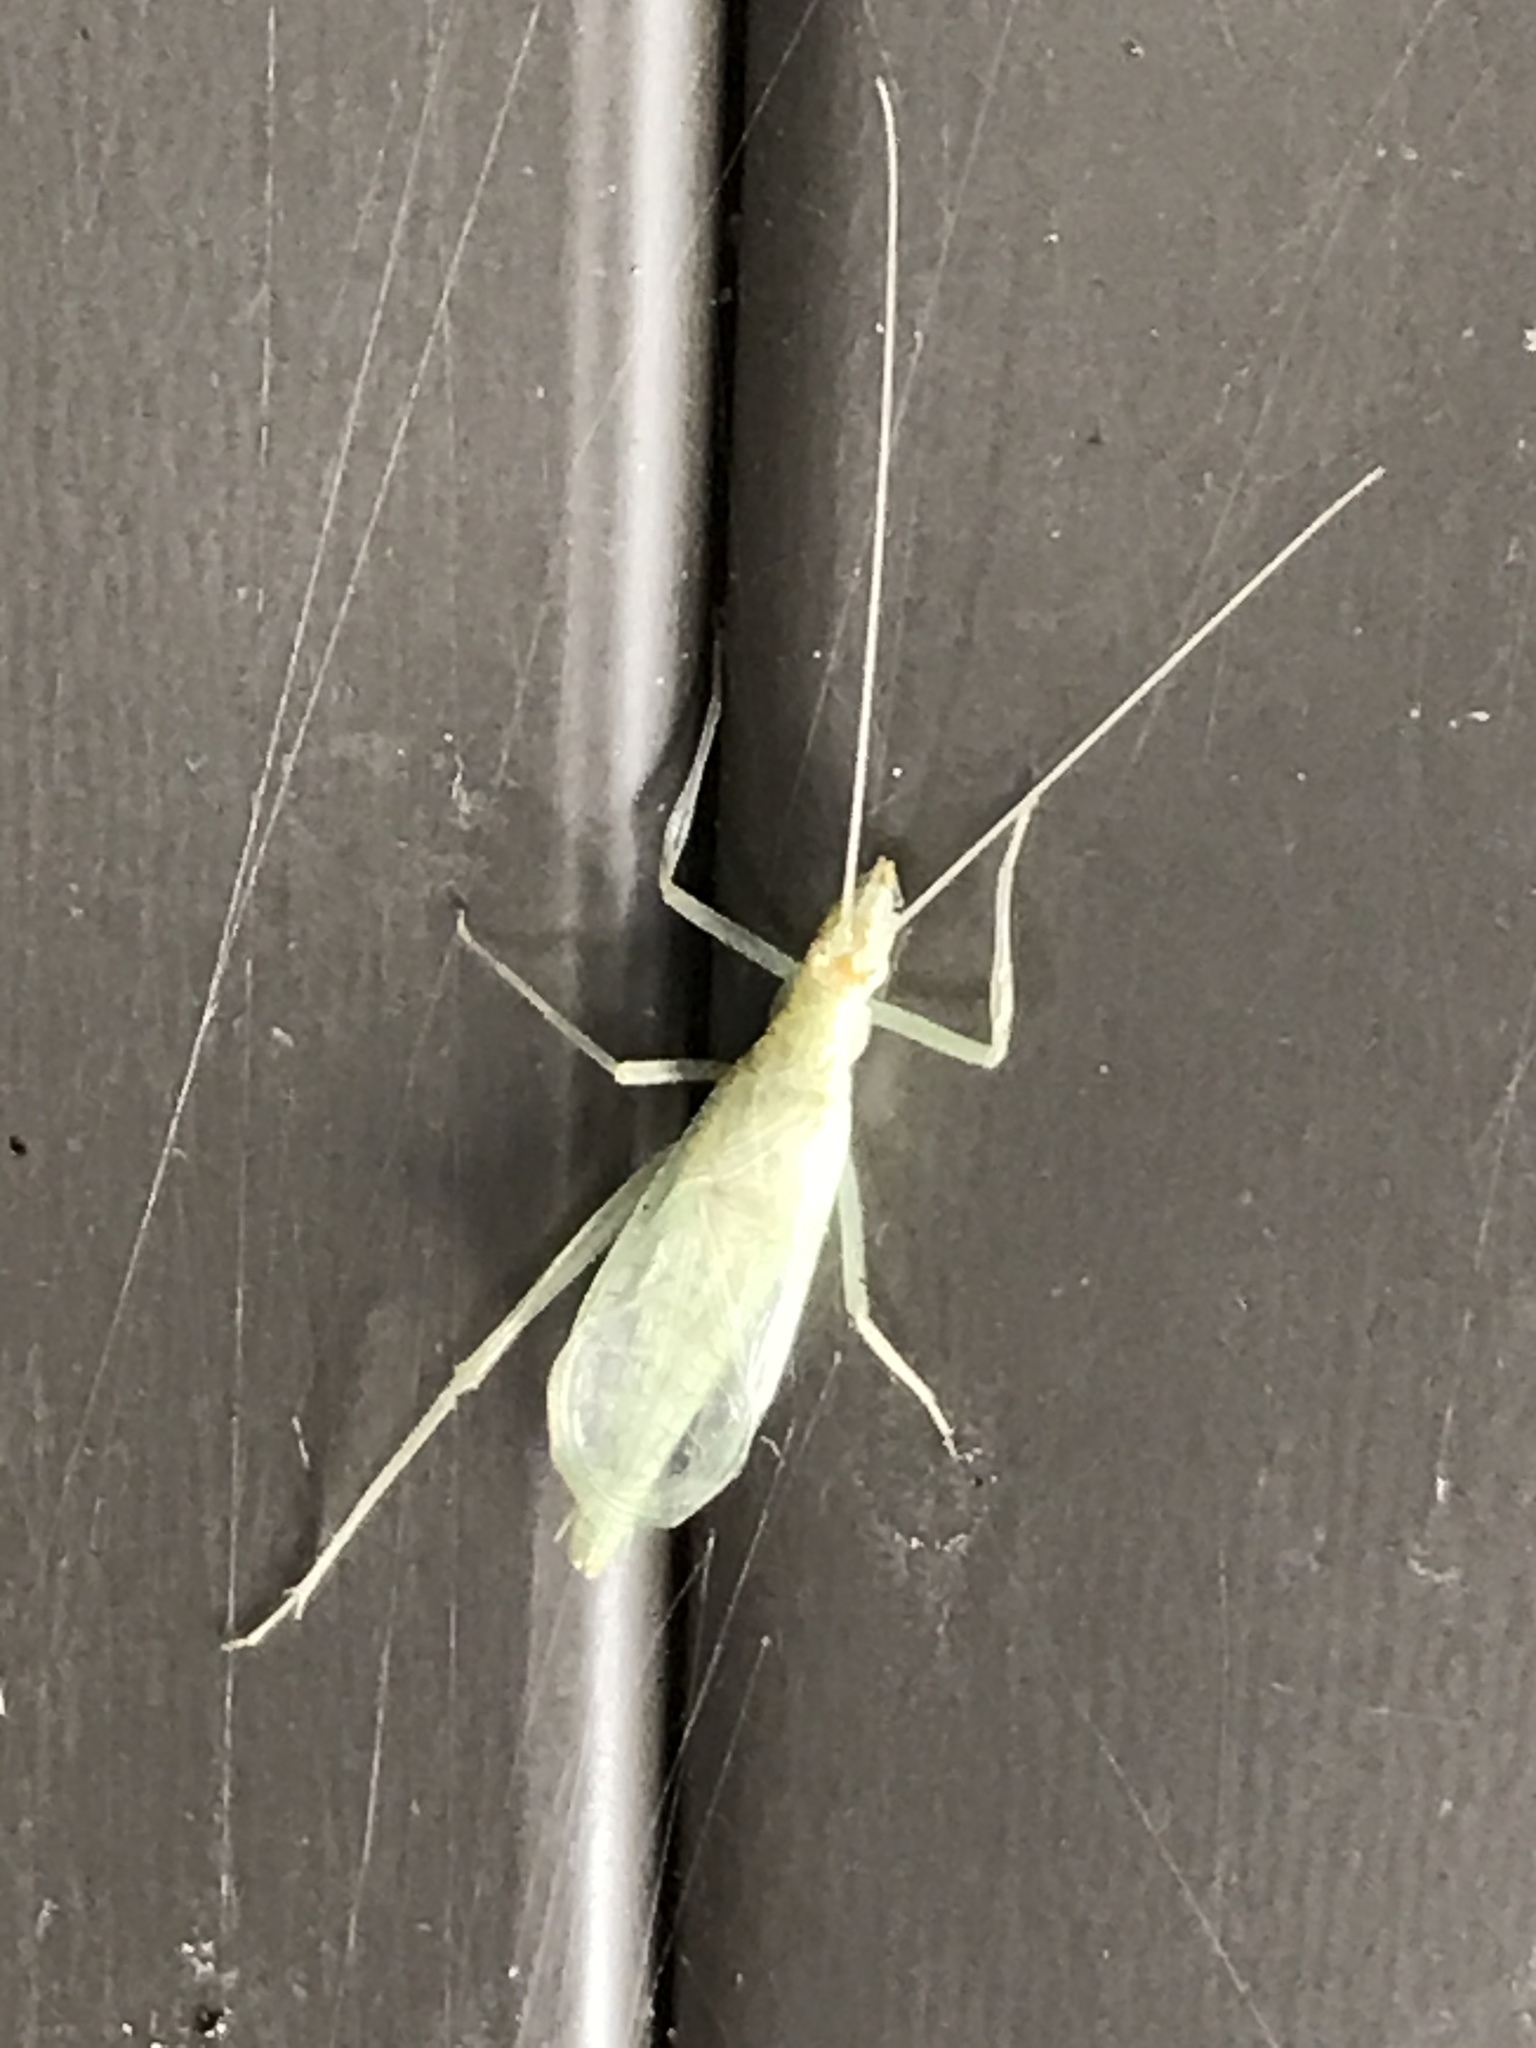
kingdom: Animalia
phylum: Arthropoda
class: Insecta
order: Orthoptera
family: Gryllidae
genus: Oecanthus
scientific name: Oecanthus niveus
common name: Narrow-winged tree cricket
